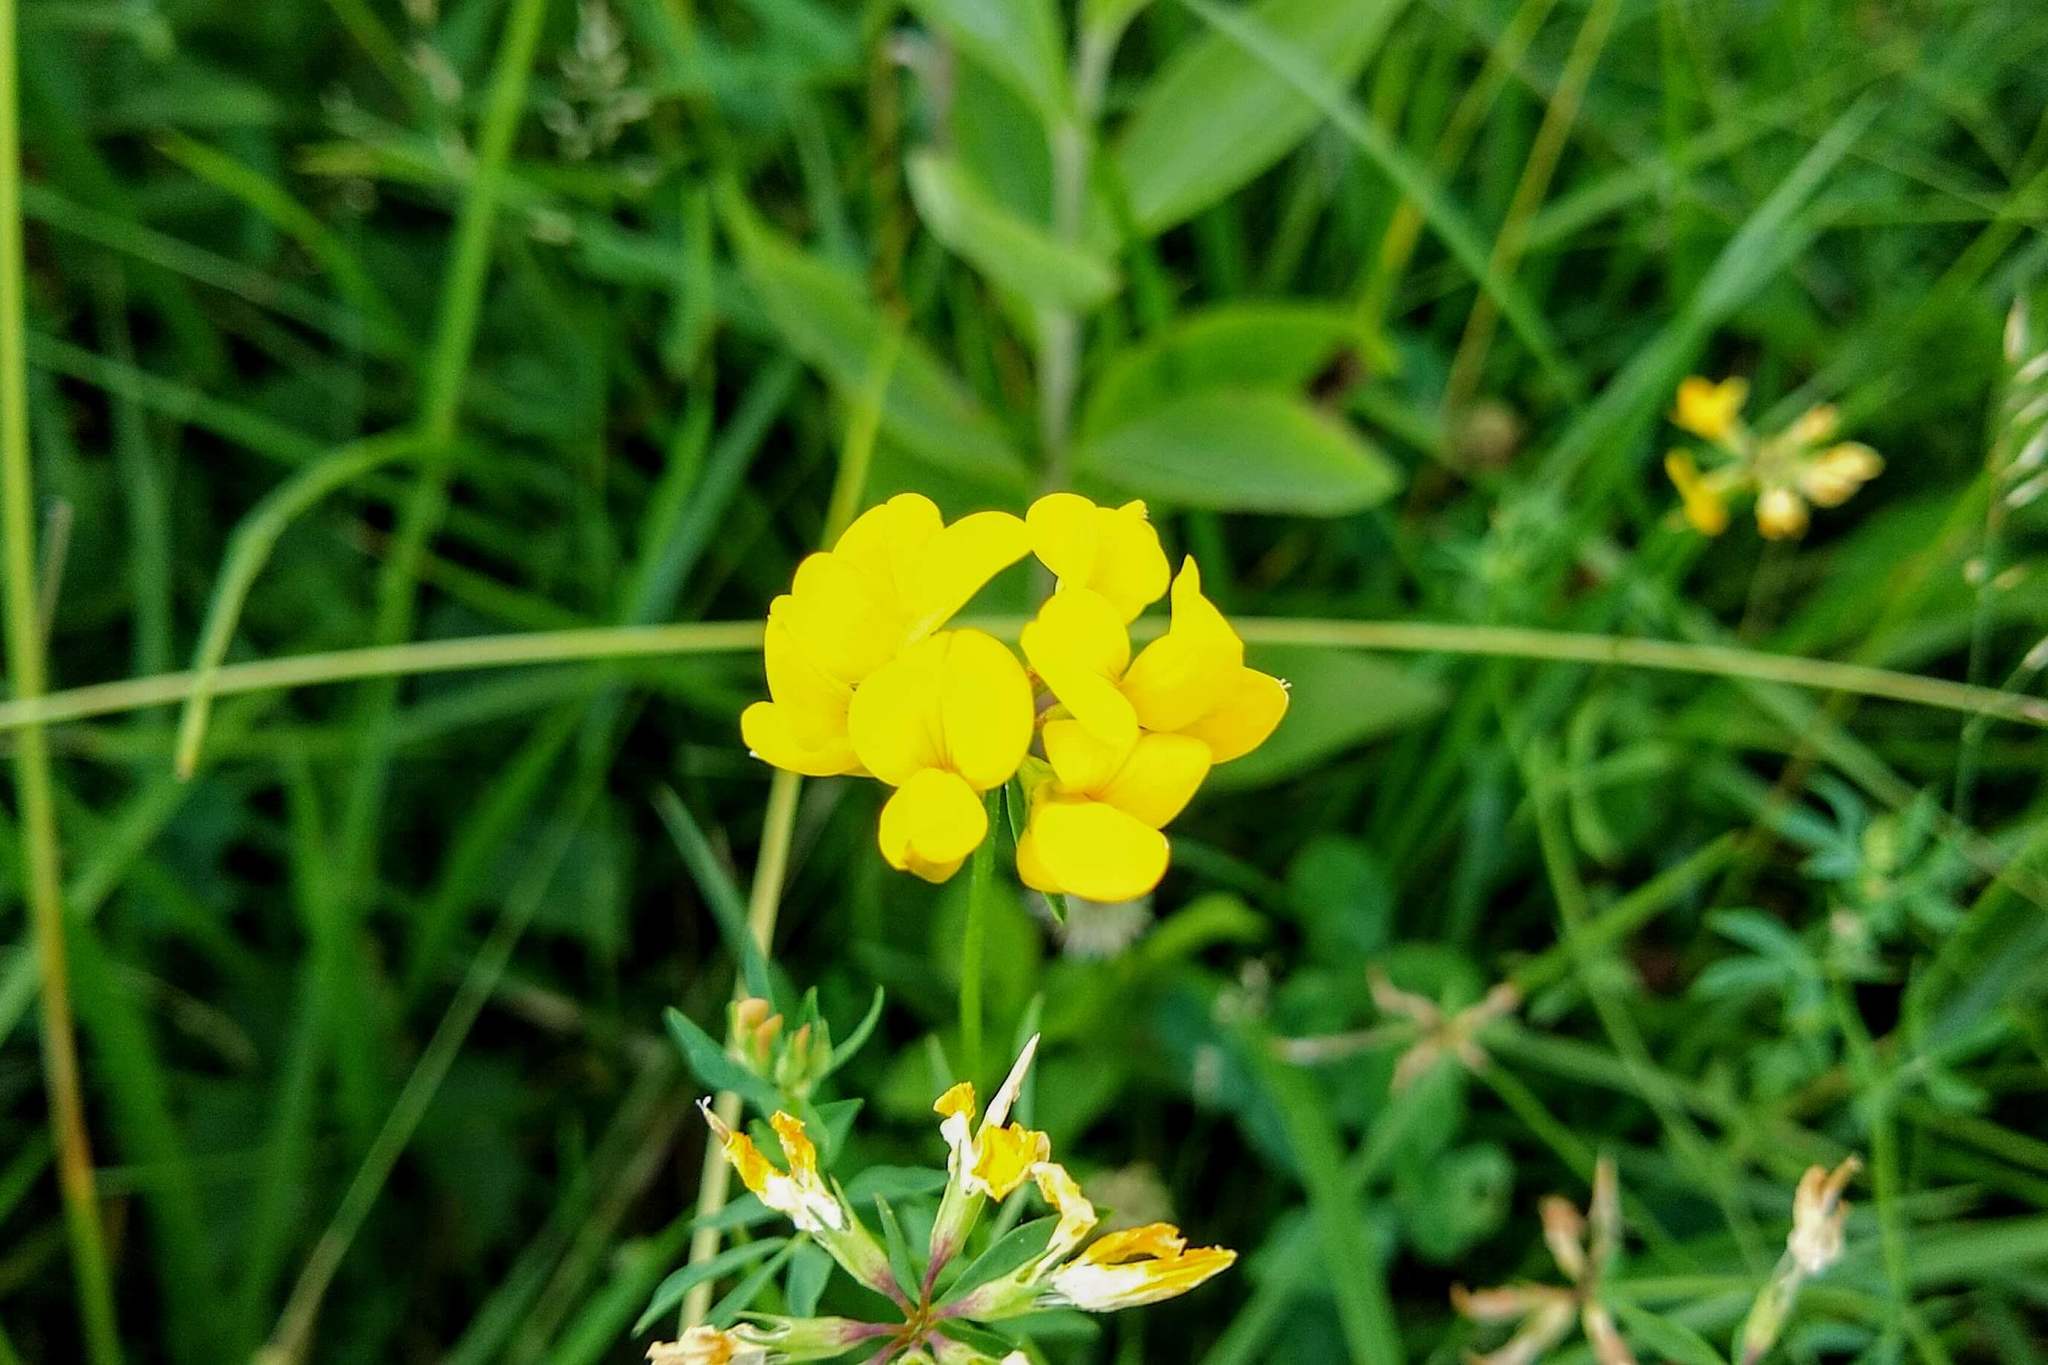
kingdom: Plantae
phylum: Tracheophyta
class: Magnoliopsida
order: Fabales
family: Fabaceae
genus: Lotus
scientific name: Lotus corniculatus
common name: Common bird's-foot-trefoil
